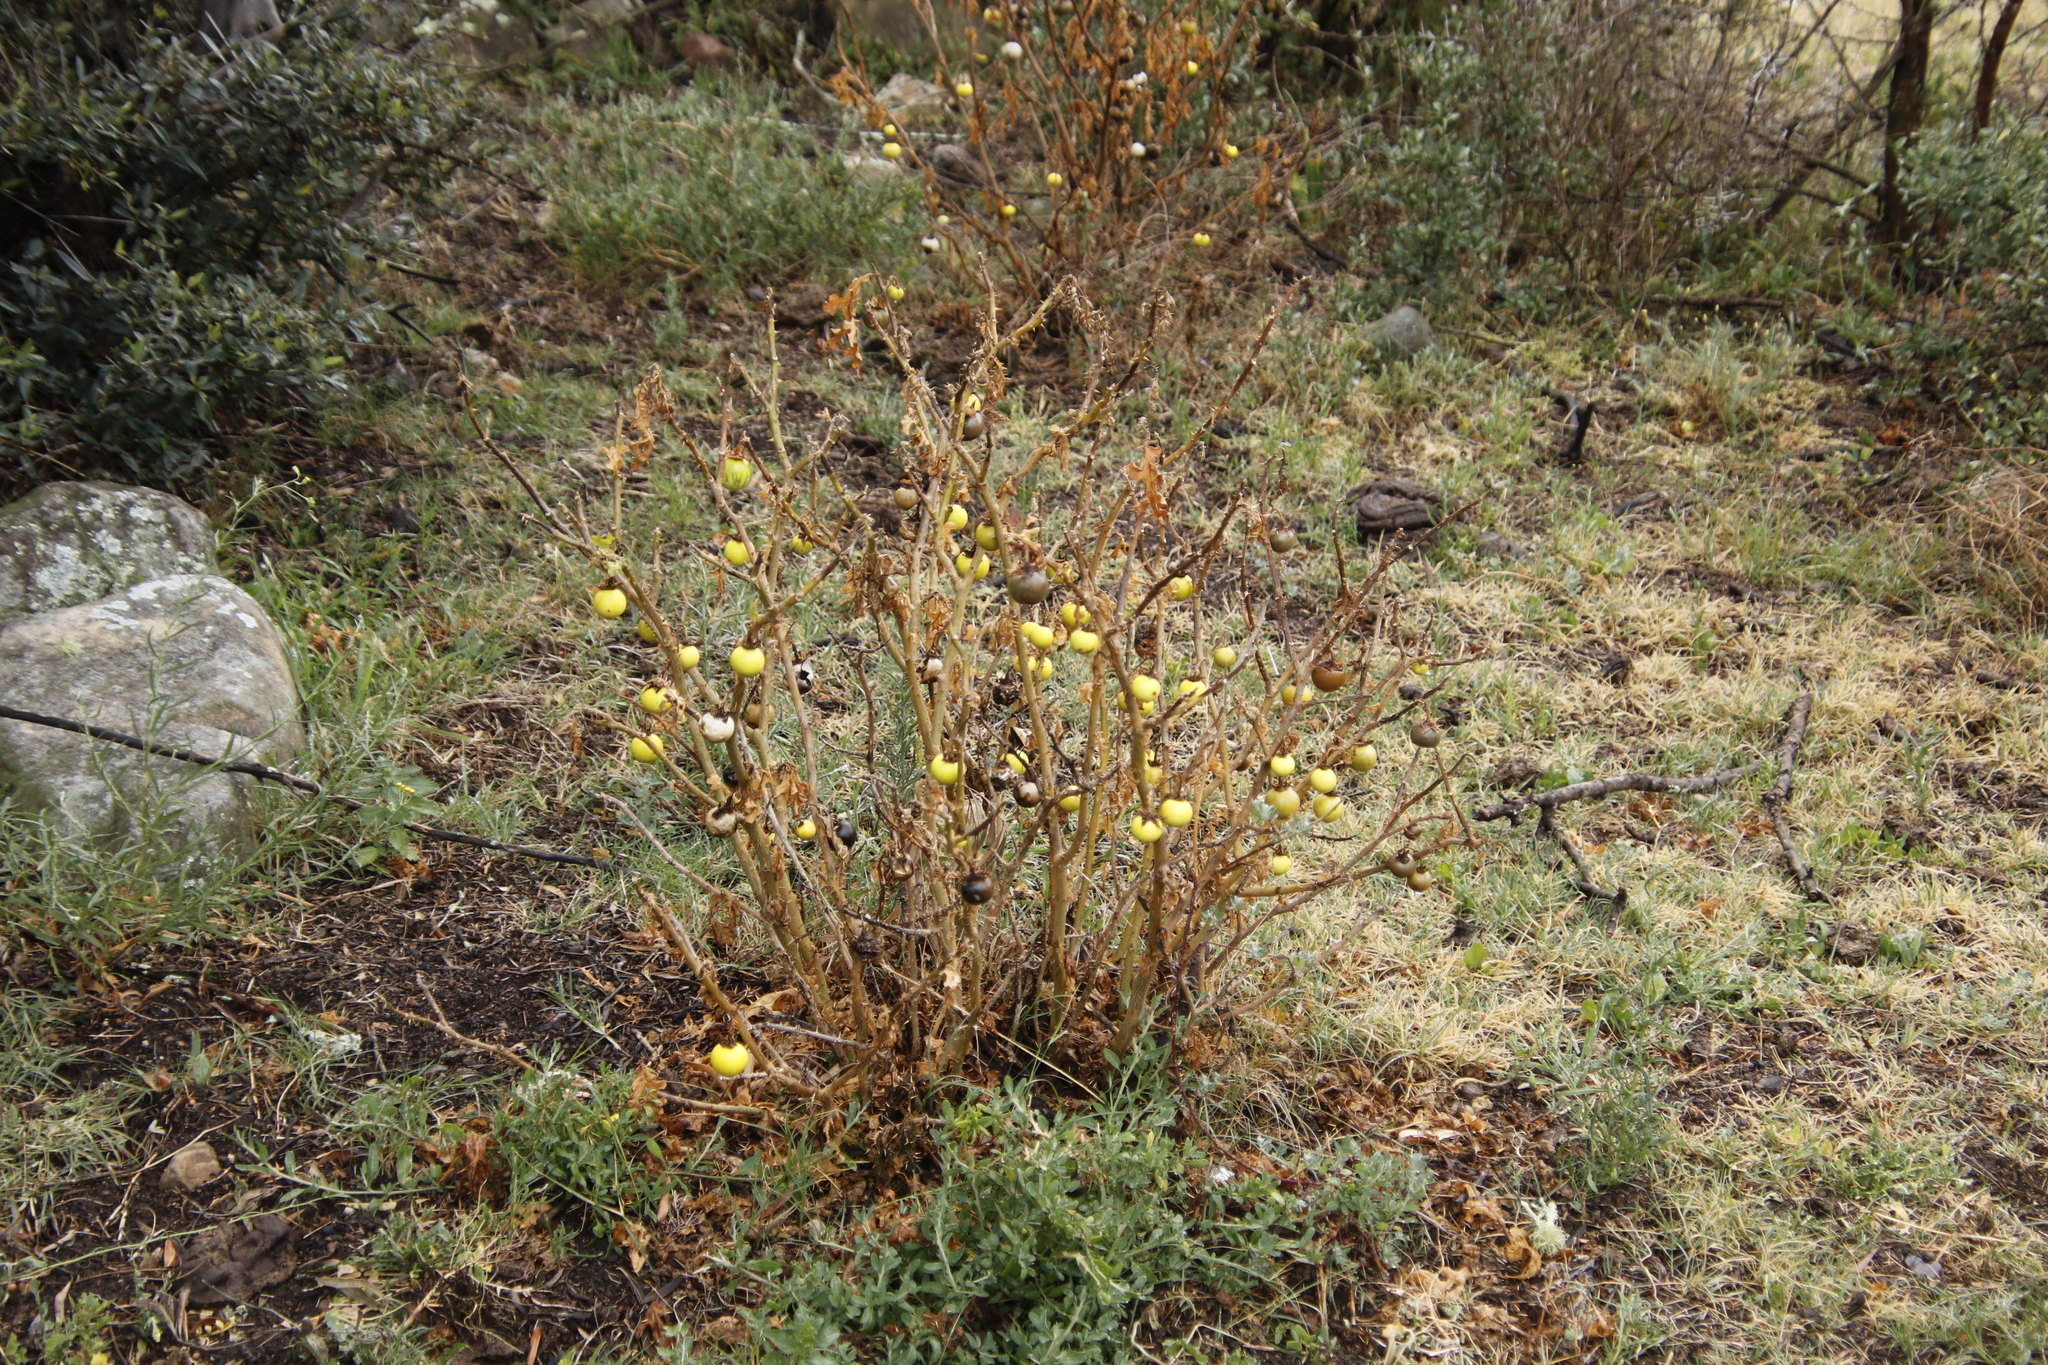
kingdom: Plantae
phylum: Tracheophyta
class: Magnoliopsida
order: Solanales
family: Solanaceae
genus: Solanum
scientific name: Solanum linnaeanum
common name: Nightshade
